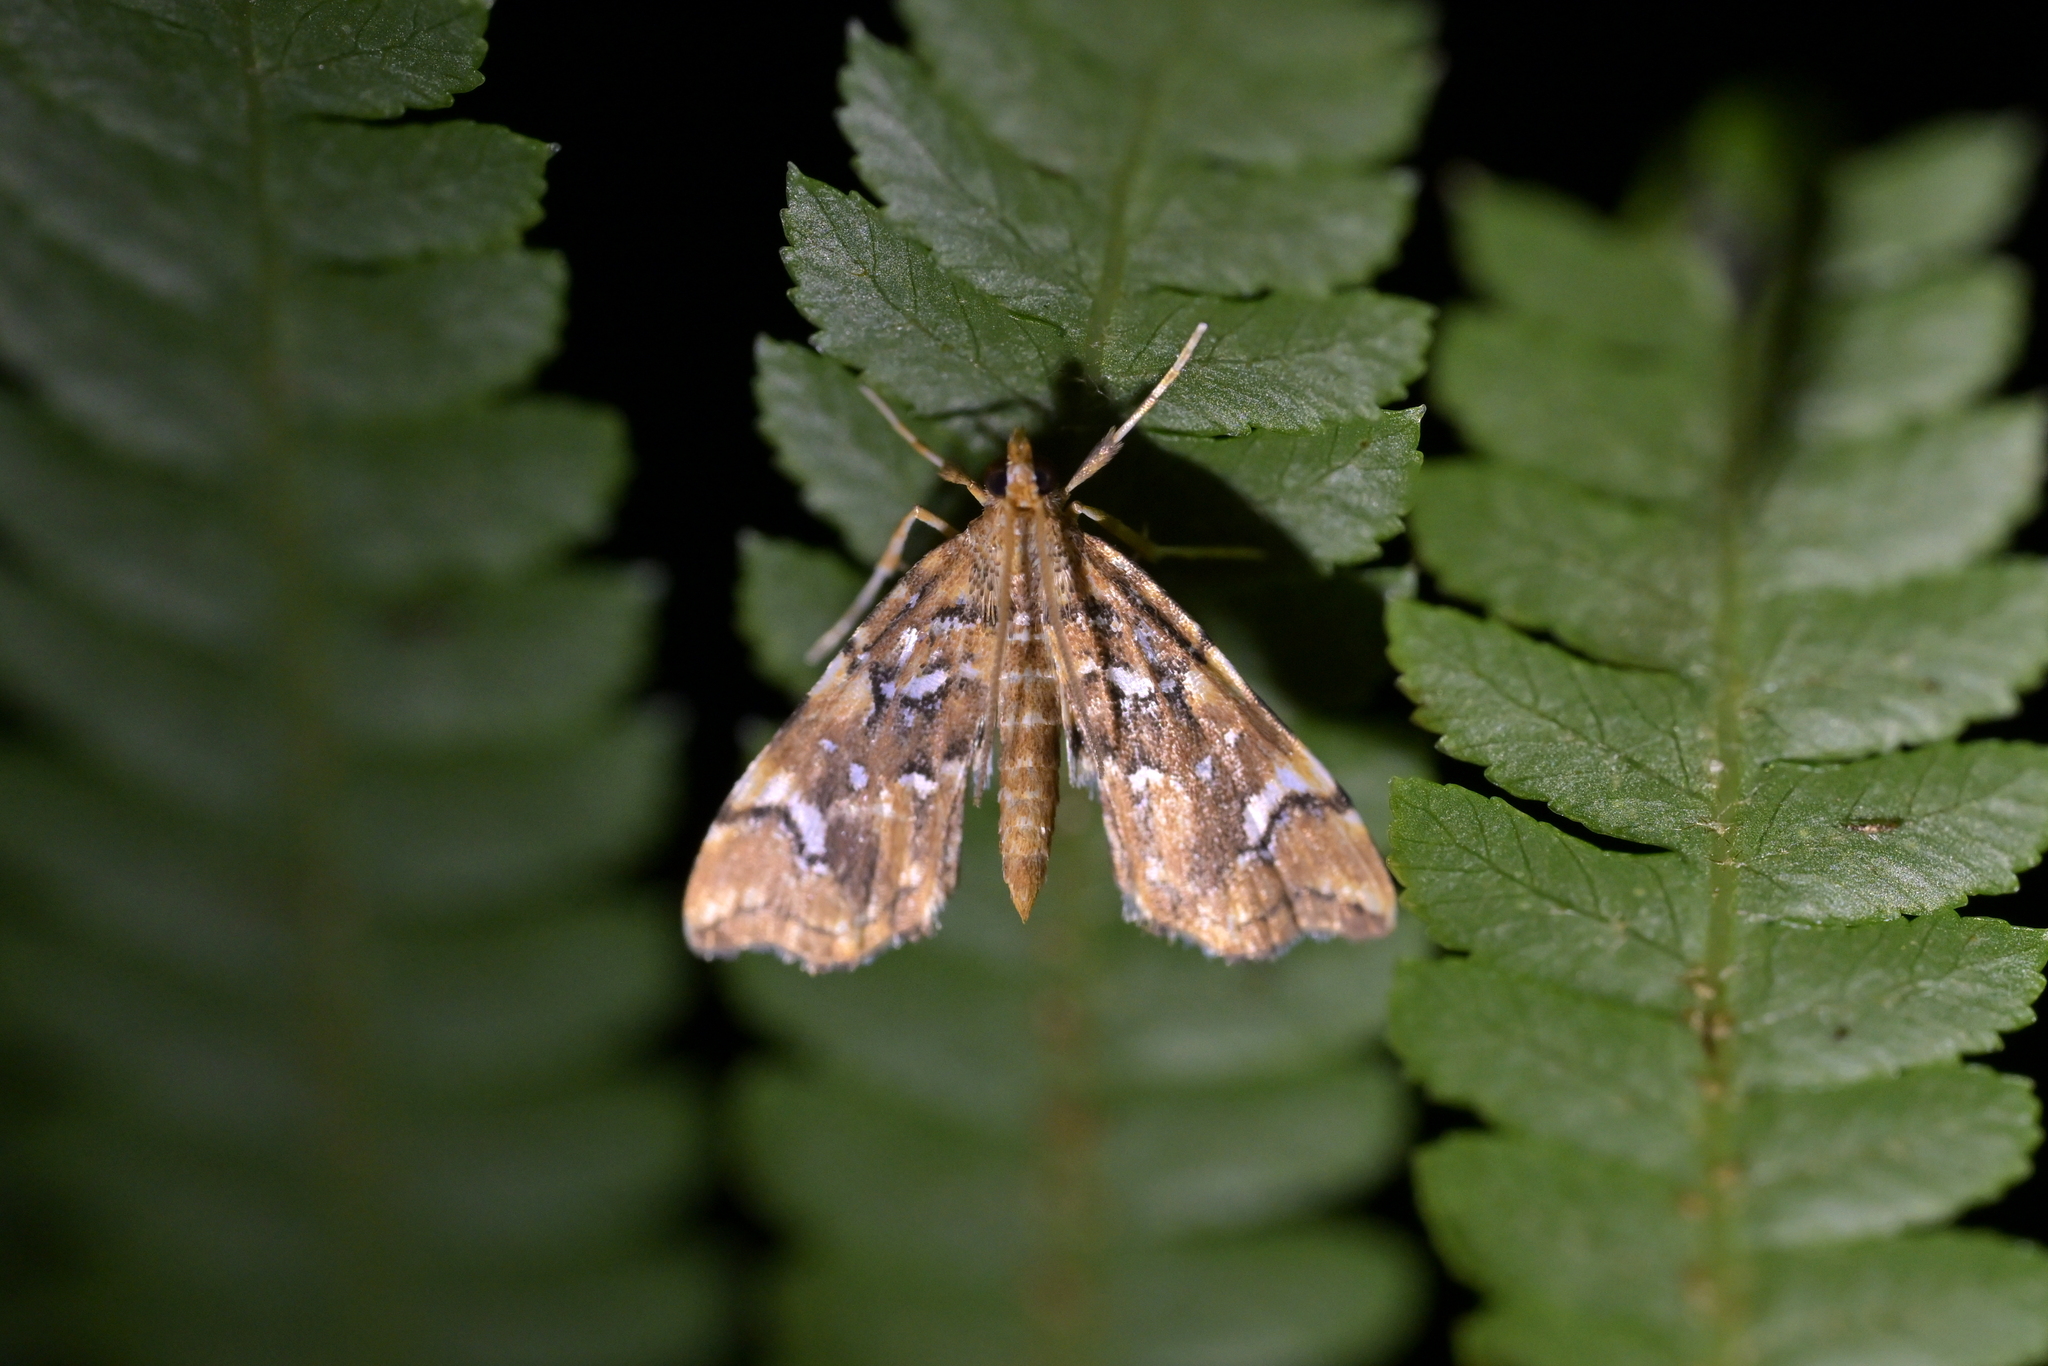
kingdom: Animalia
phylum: Arthropoda
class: Insecta
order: Lepidoptera
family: Pyralidae
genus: Musotima
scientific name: Musotima nitidalis
